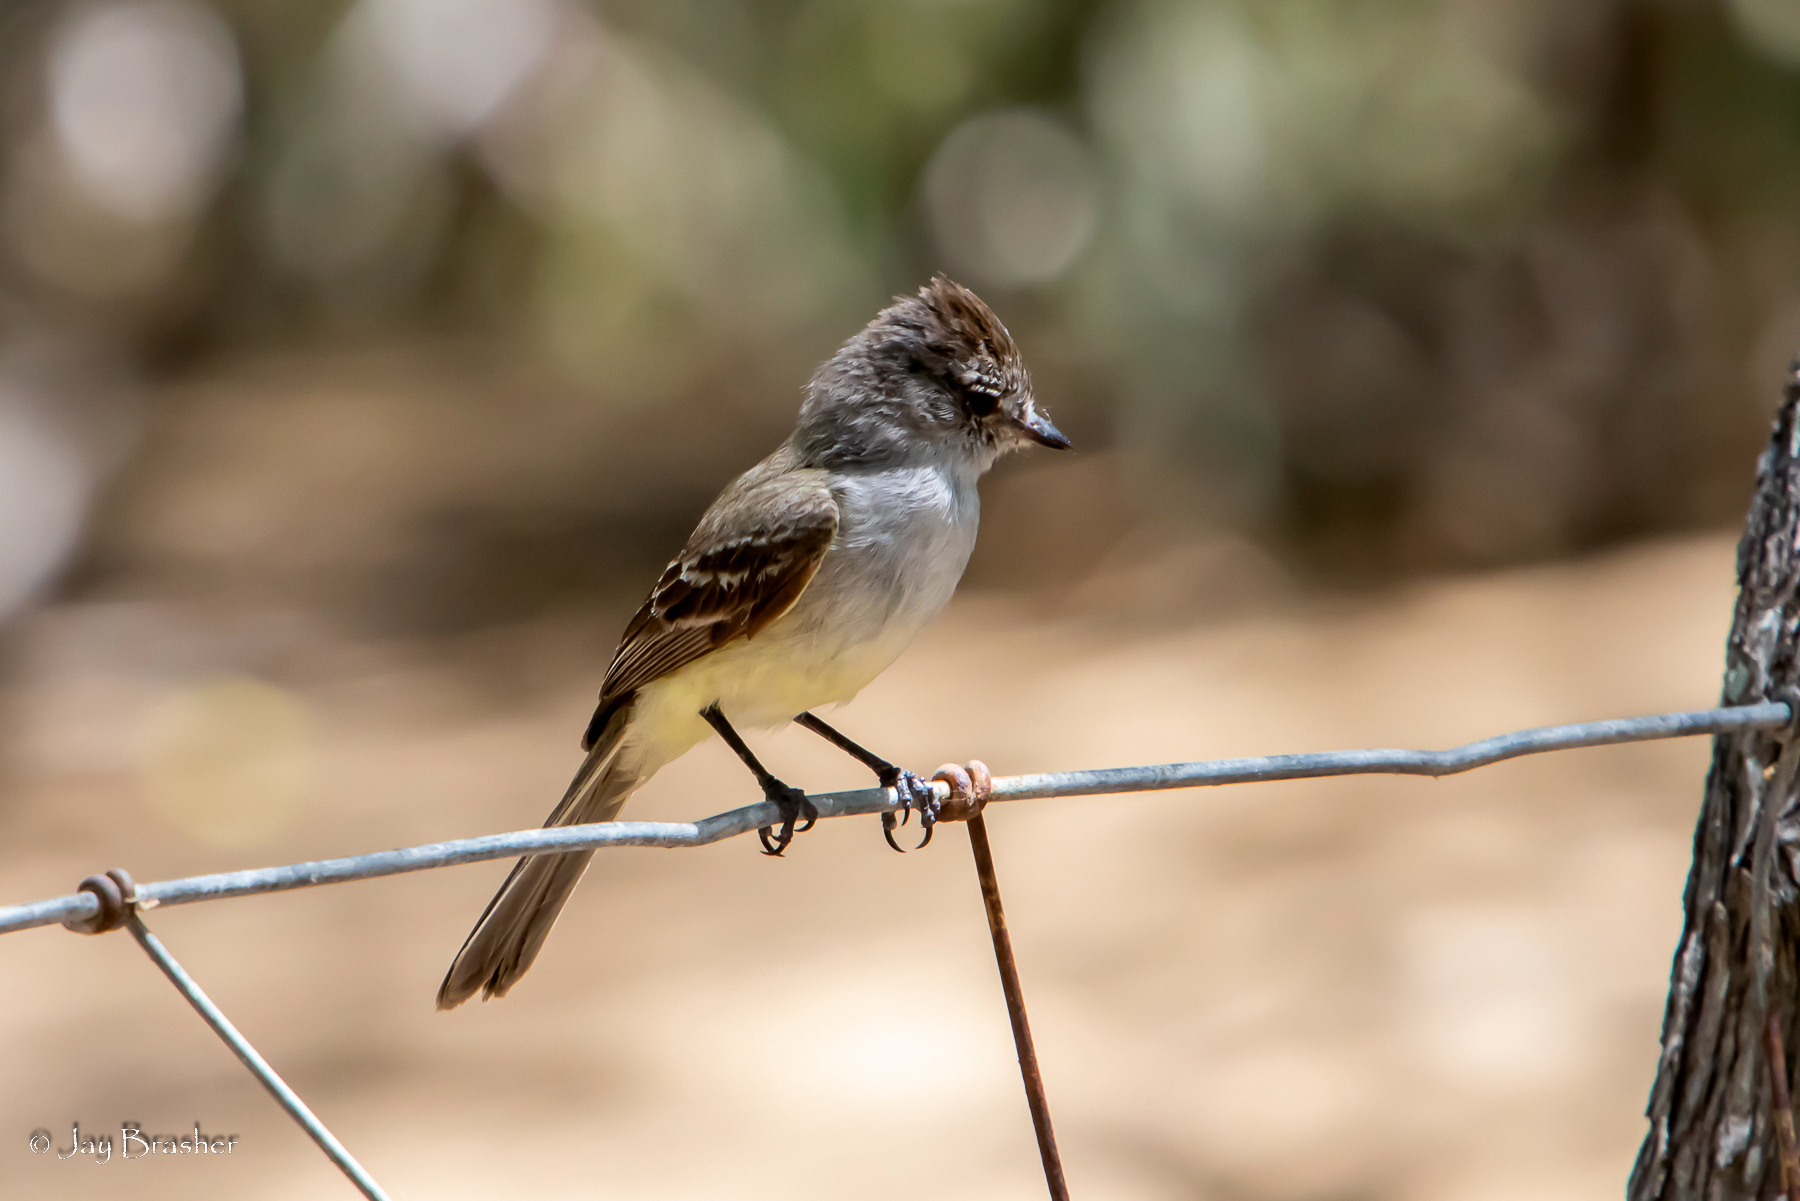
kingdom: Animalia
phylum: Chordata
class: Aves
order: Passeriformes
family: Tyrannidae
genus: Sublegatus
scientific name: Sublegatus arenarum
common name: Northern scrub-flycatcher
